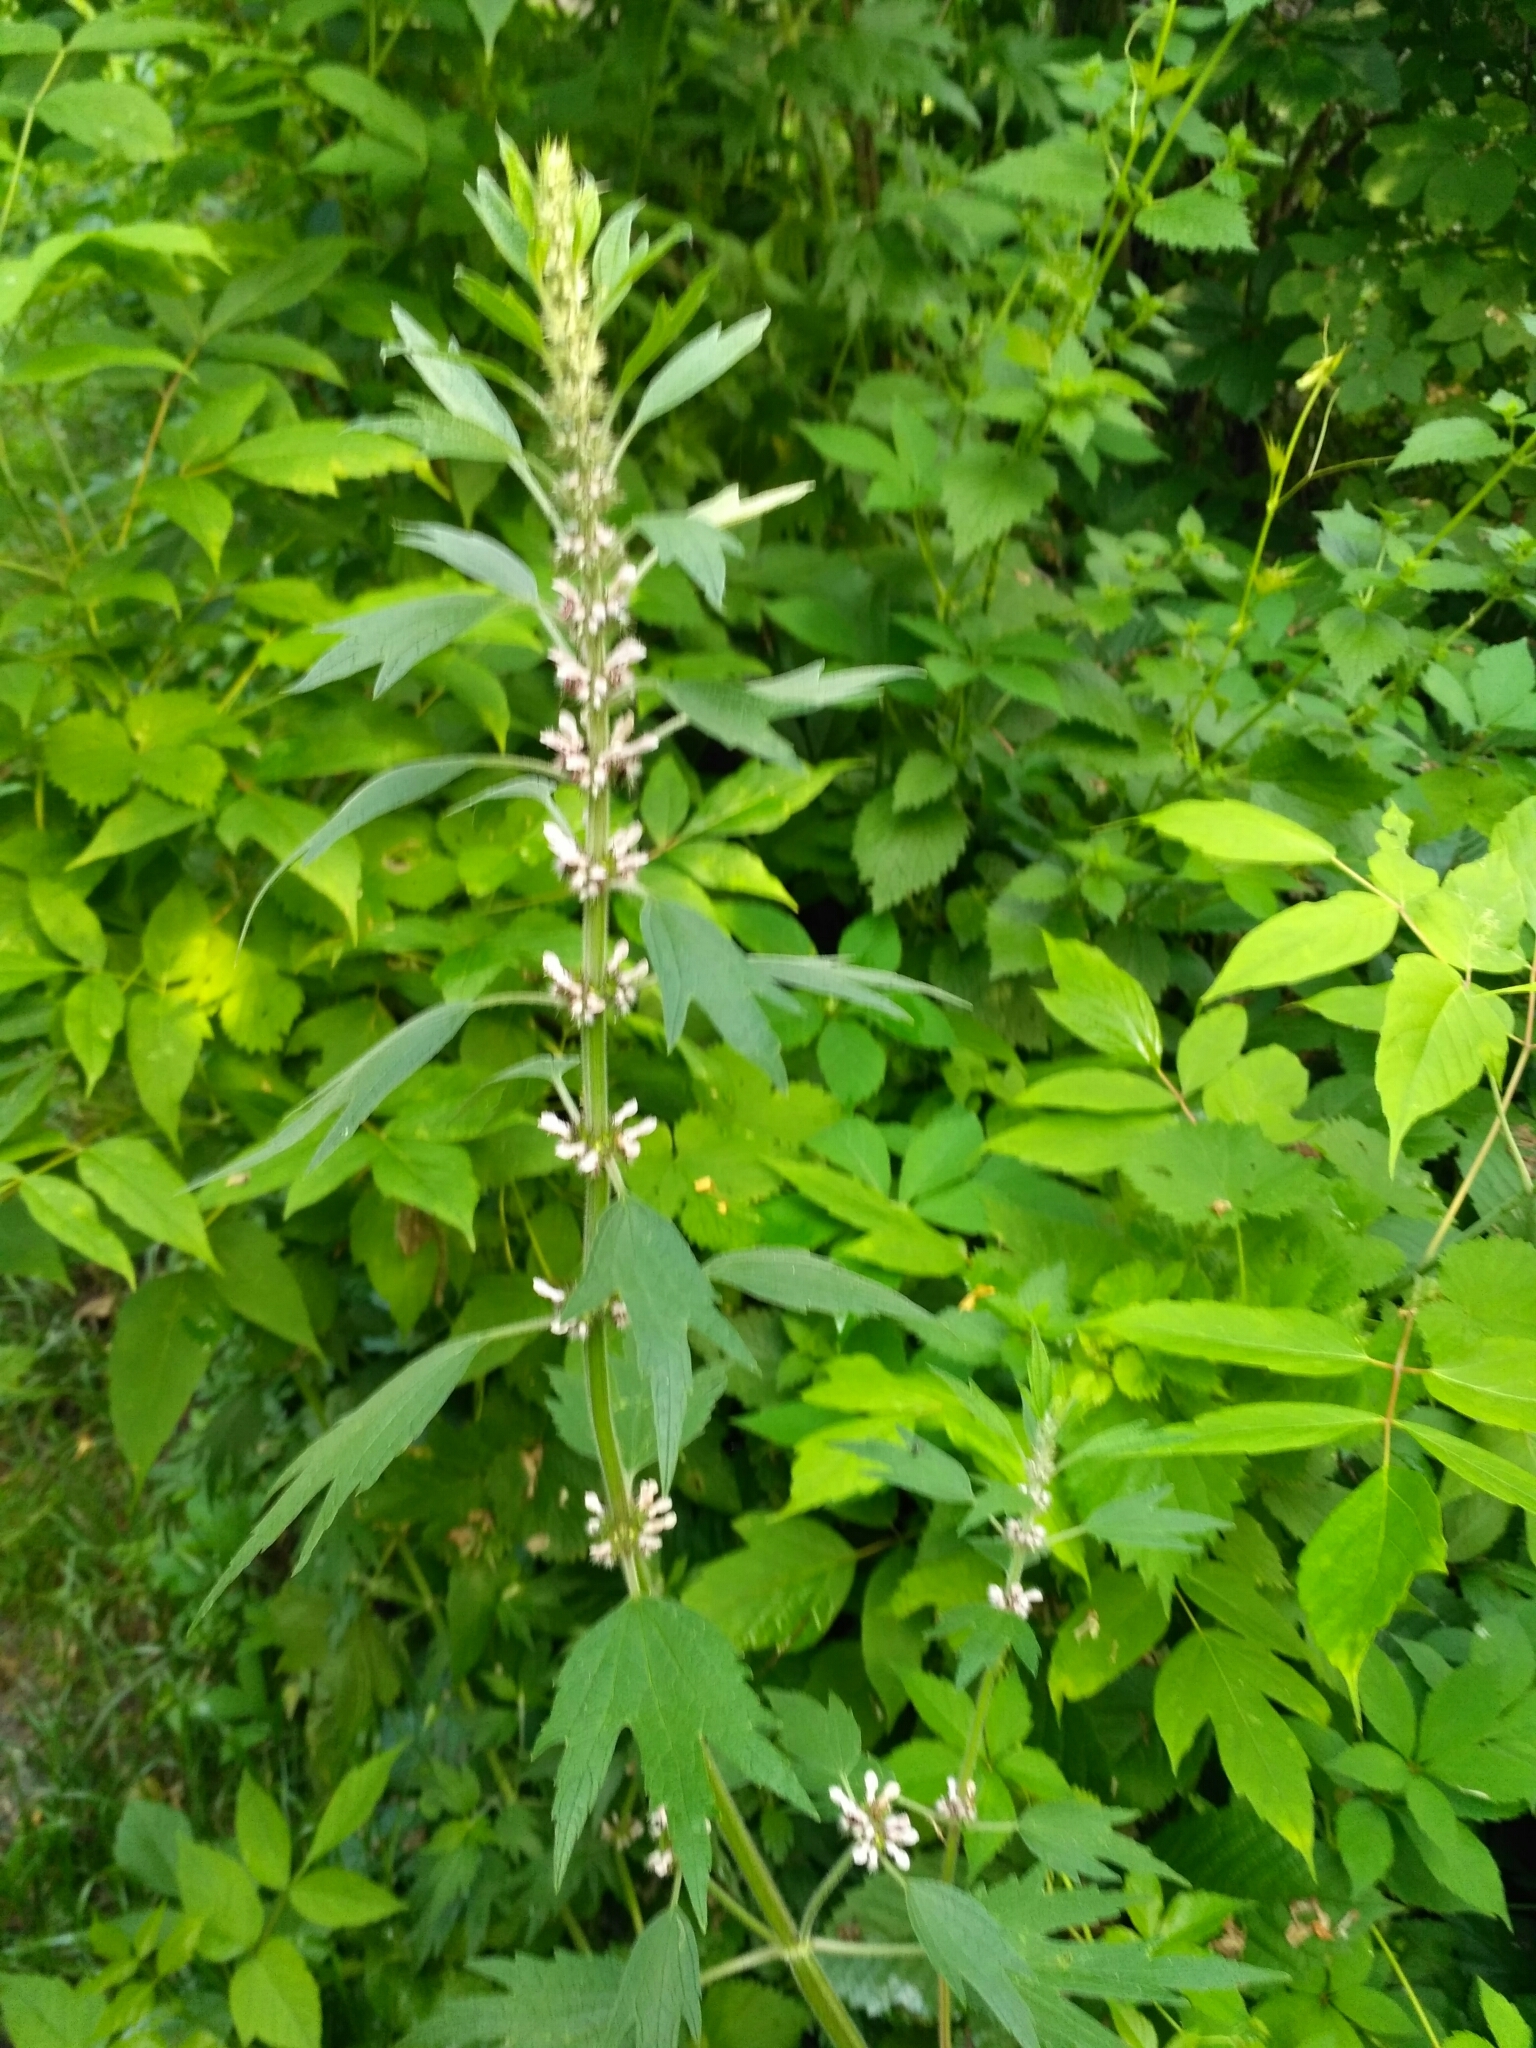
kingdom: Plantae
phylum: Tracheophyta
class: Magnoliopsida
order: Lamiales
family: Lamiaceae
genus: Leonurus
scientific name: Leonurus quinquelobatus
